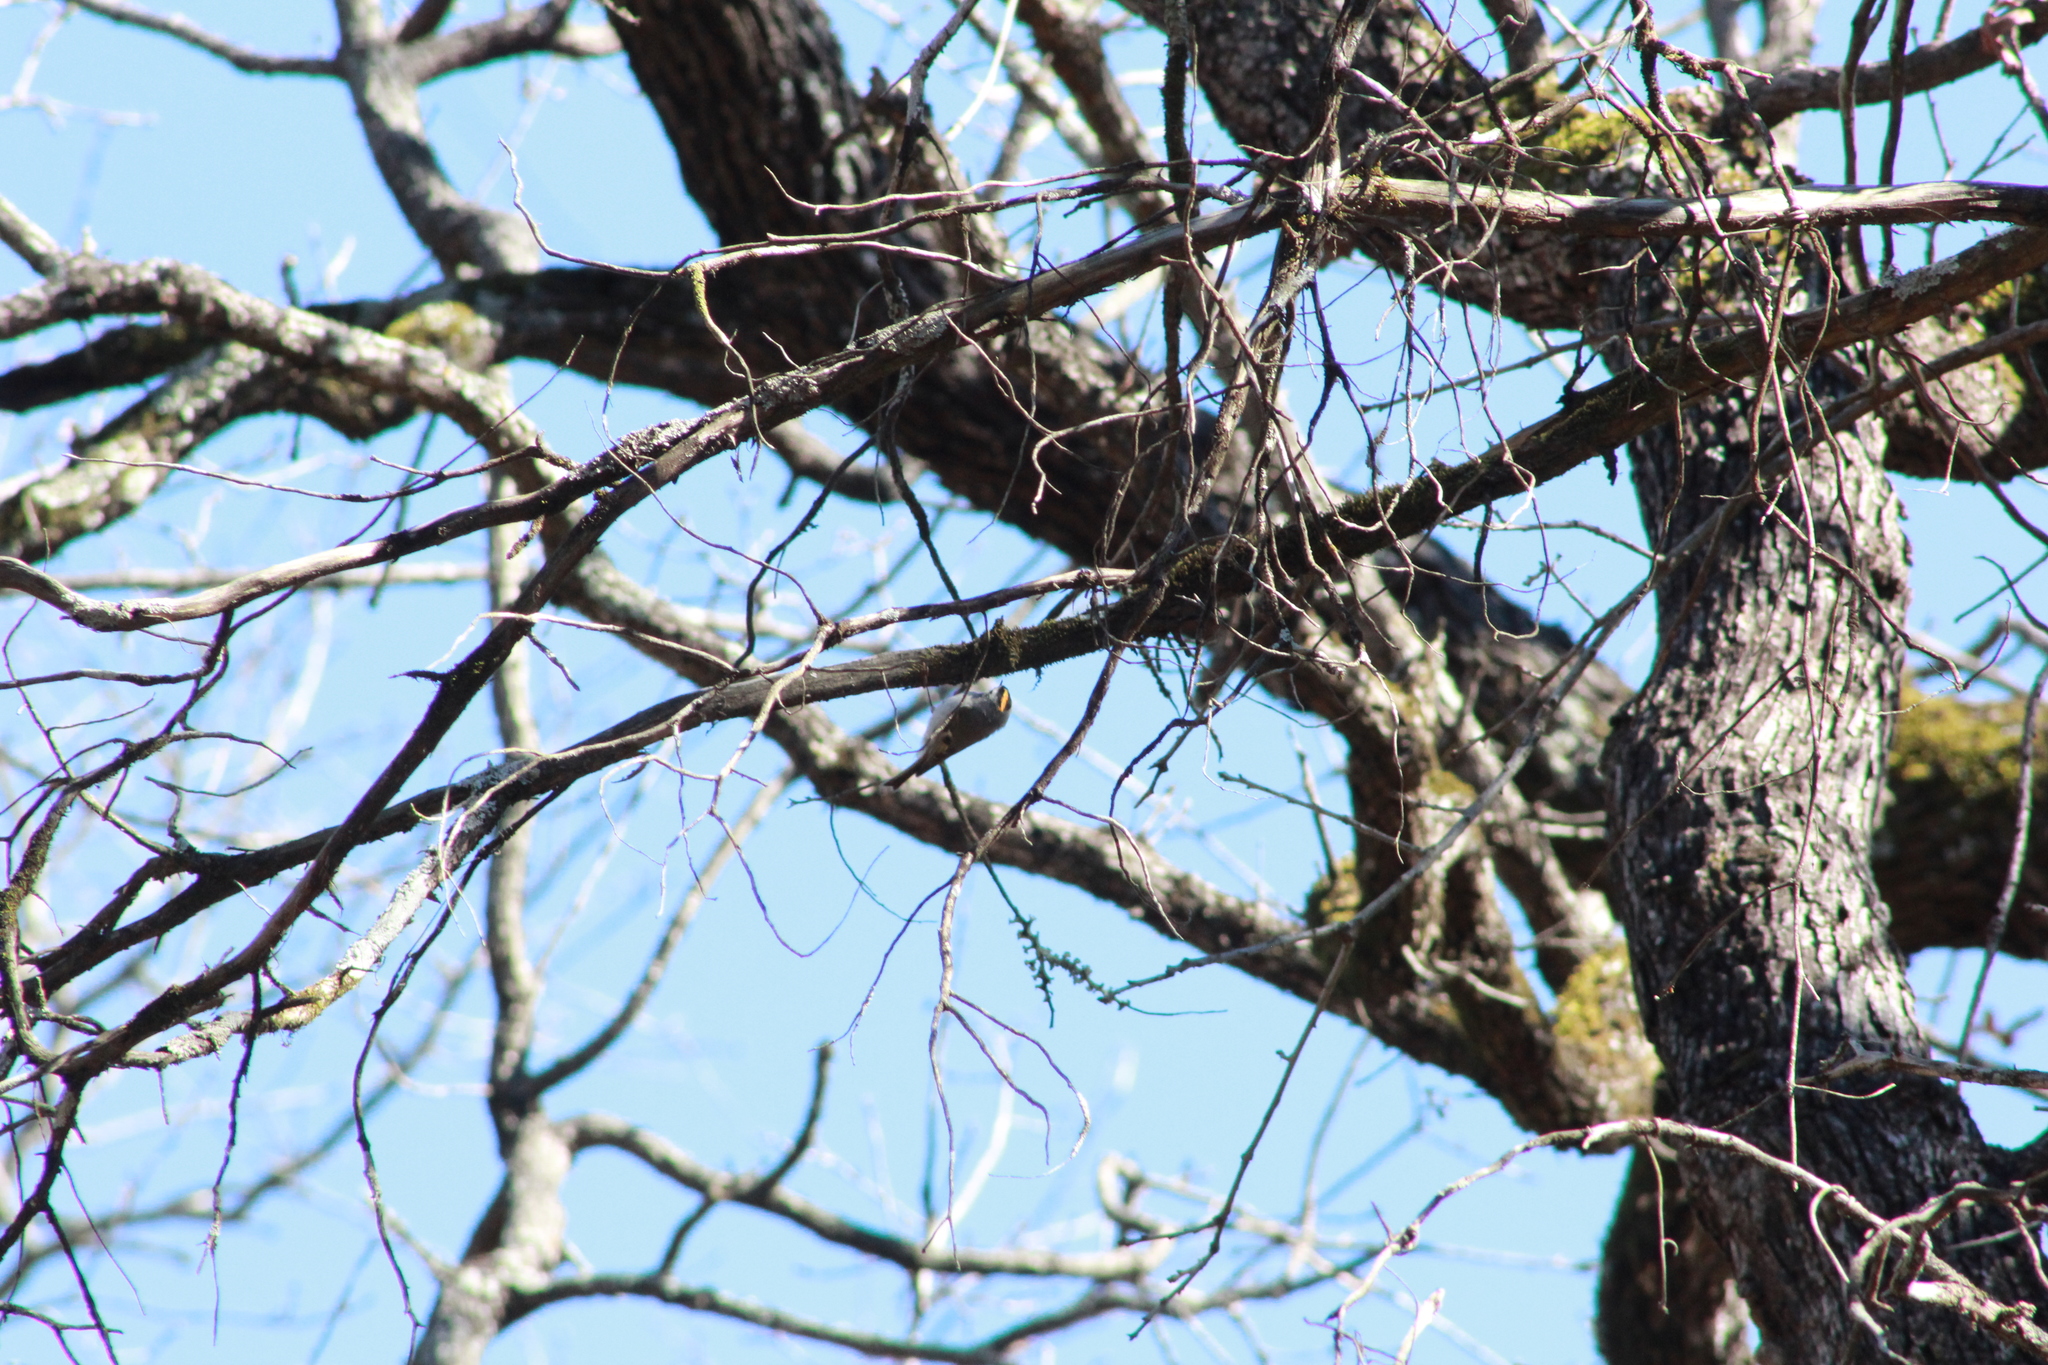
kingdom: Animalia
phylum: Chordata
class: Aves
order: Passeriformes
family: Regulidae
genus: Regulus
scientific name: Regulus satrapa
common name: Golden-crowned kinglet
